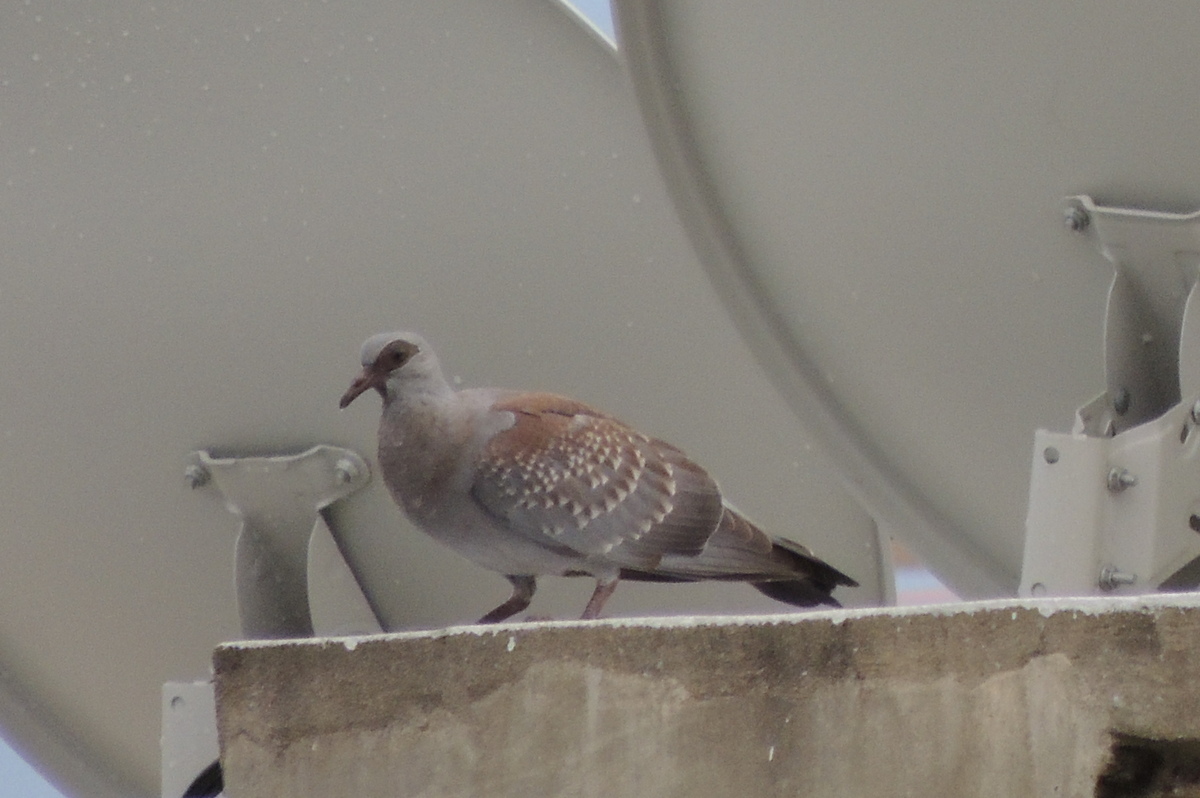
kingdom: Animalia
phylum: Chordata
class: Aves
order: Columbiformes
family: Columbidae
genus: Columba
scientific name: Columba guinea
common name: Speckled pigeon
